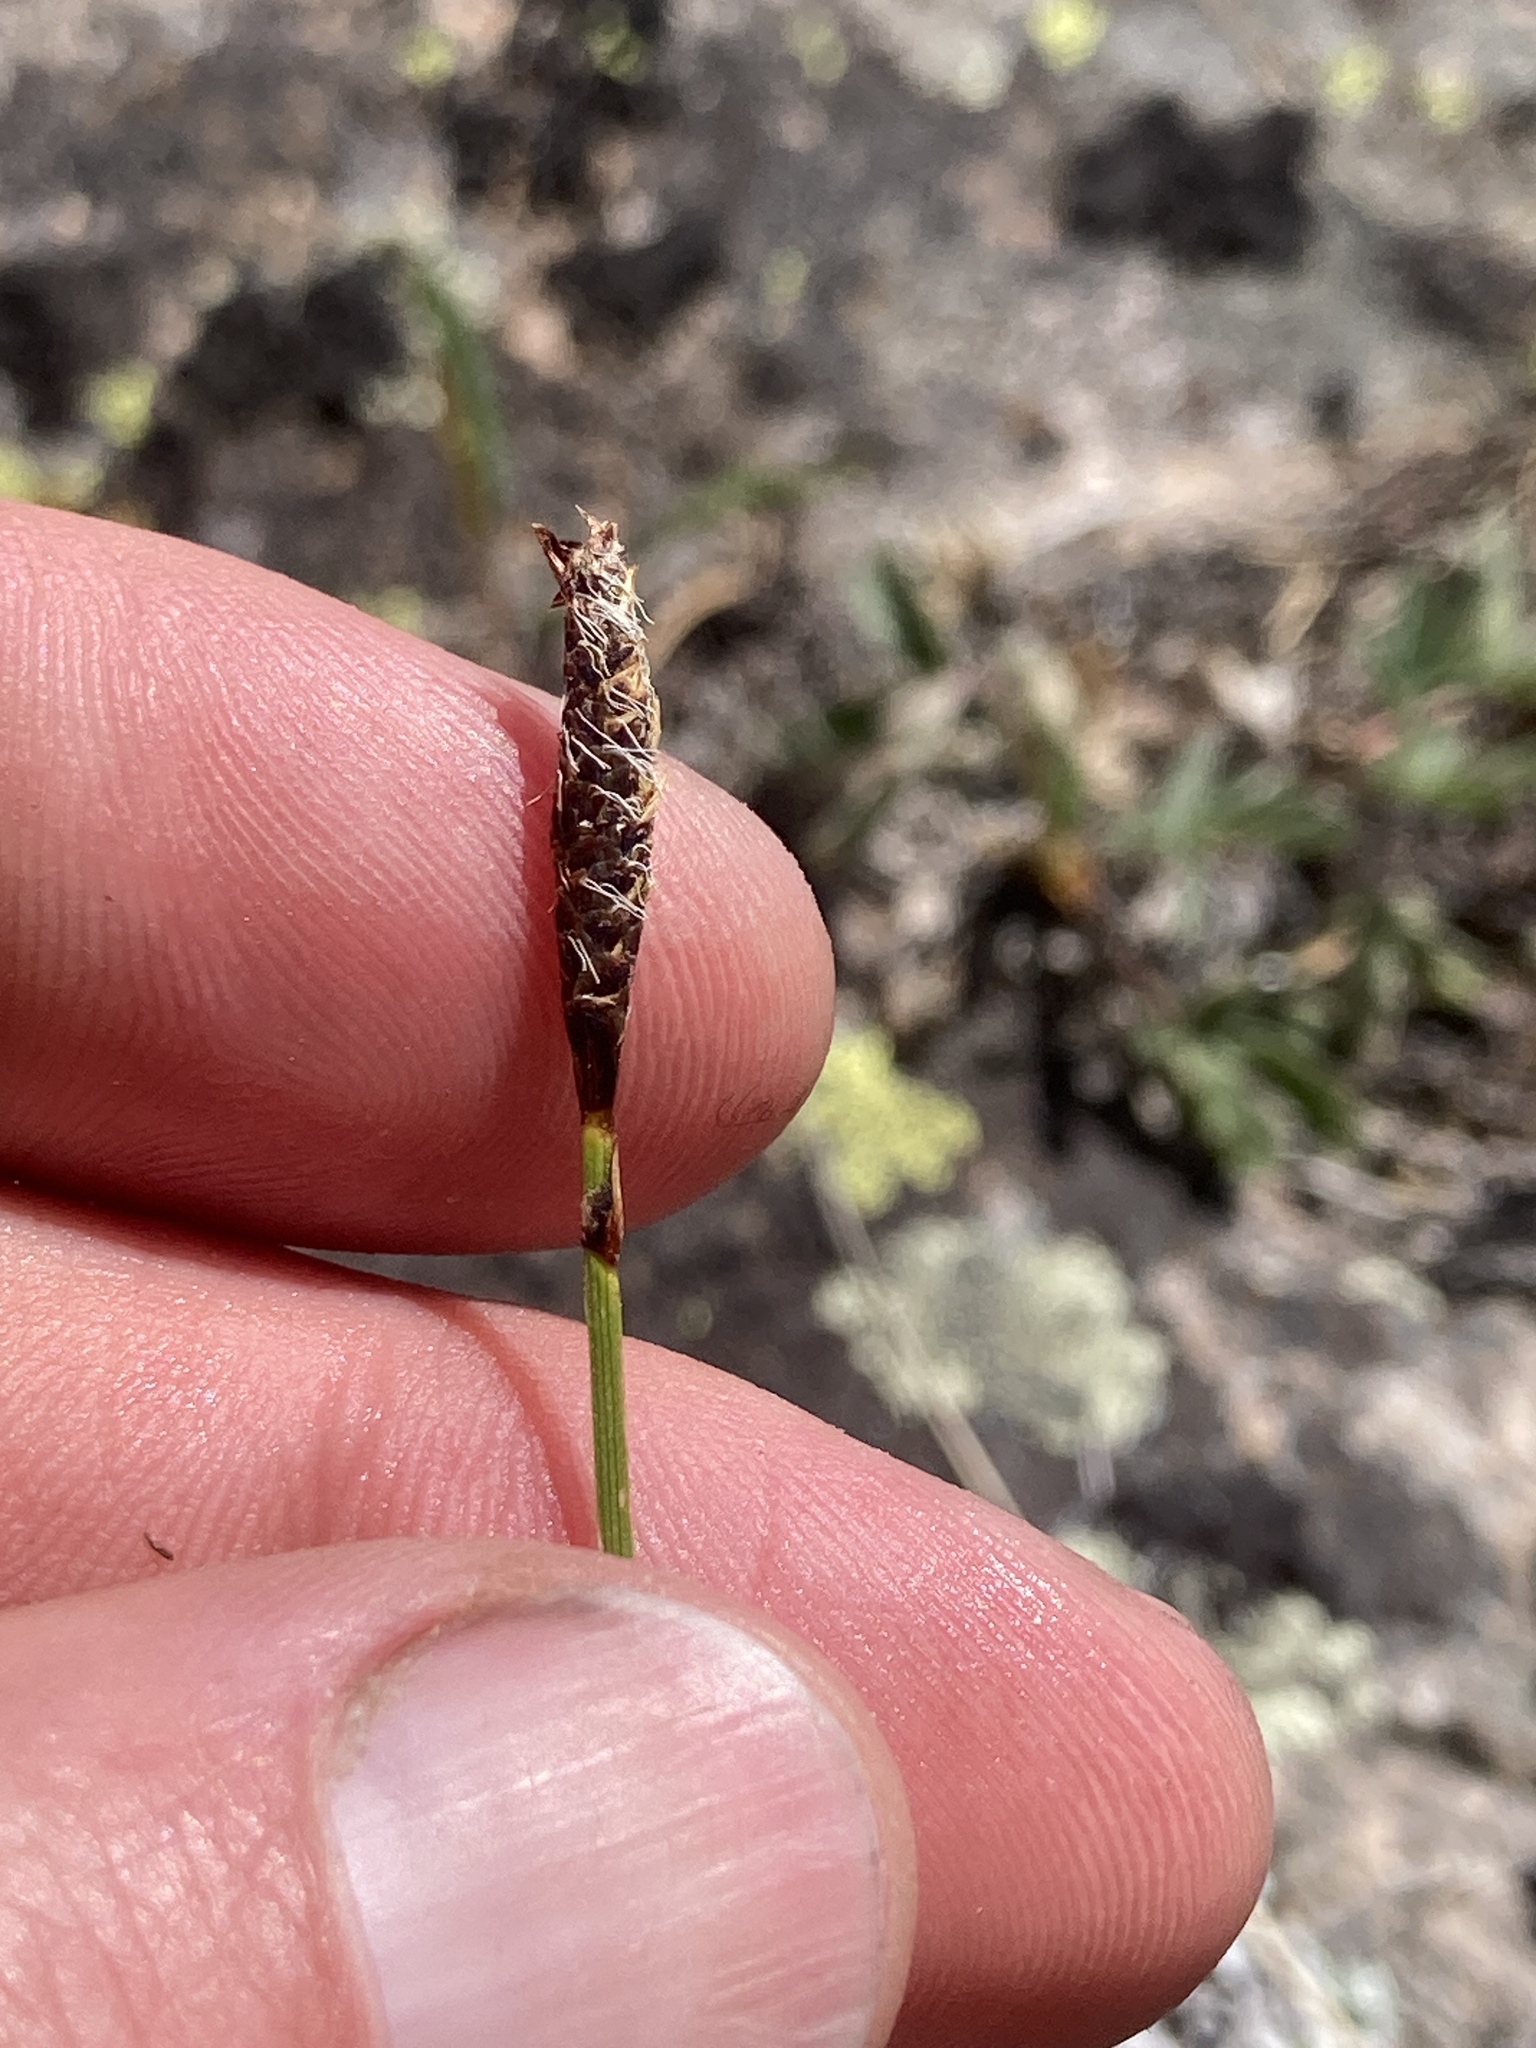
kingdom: Plantae
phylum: Tracheophyta
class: Liliopsida
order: Poales
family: Cyperaceae
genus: Carex
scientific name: Carex scirpoidea
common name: Canada single-spike sedge
